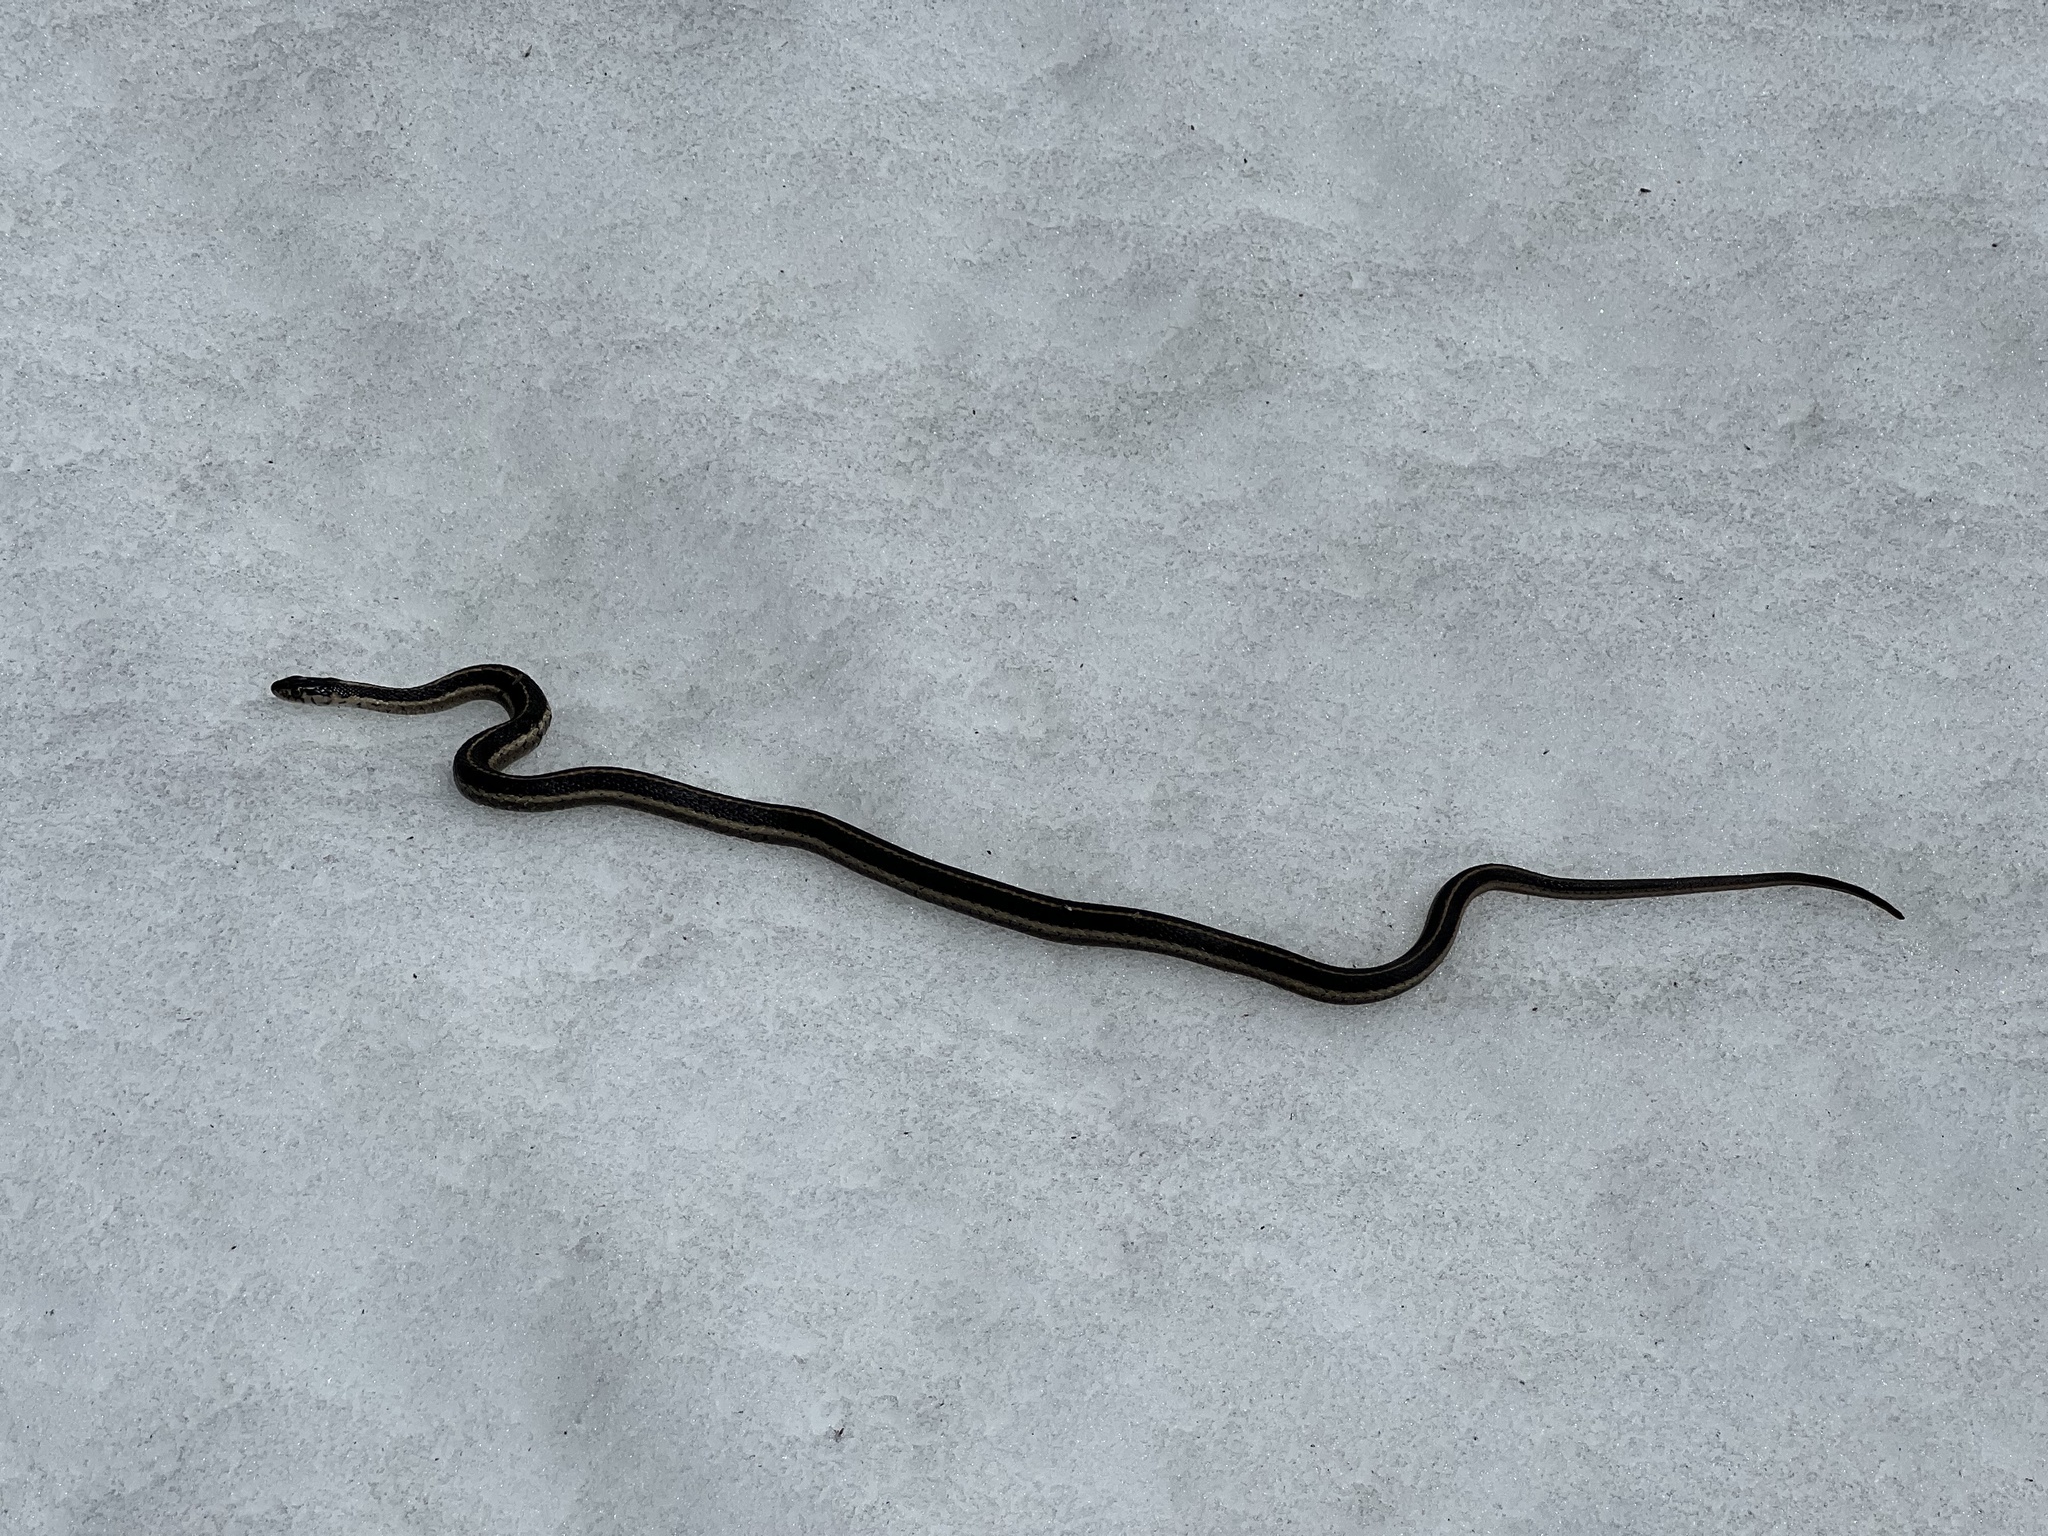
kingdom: Animalia
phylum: Chordata
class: Squamata
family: Colubridae
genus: Thamnophis
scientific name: Thamnophis elegans
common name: Western terrestrial garter snake
